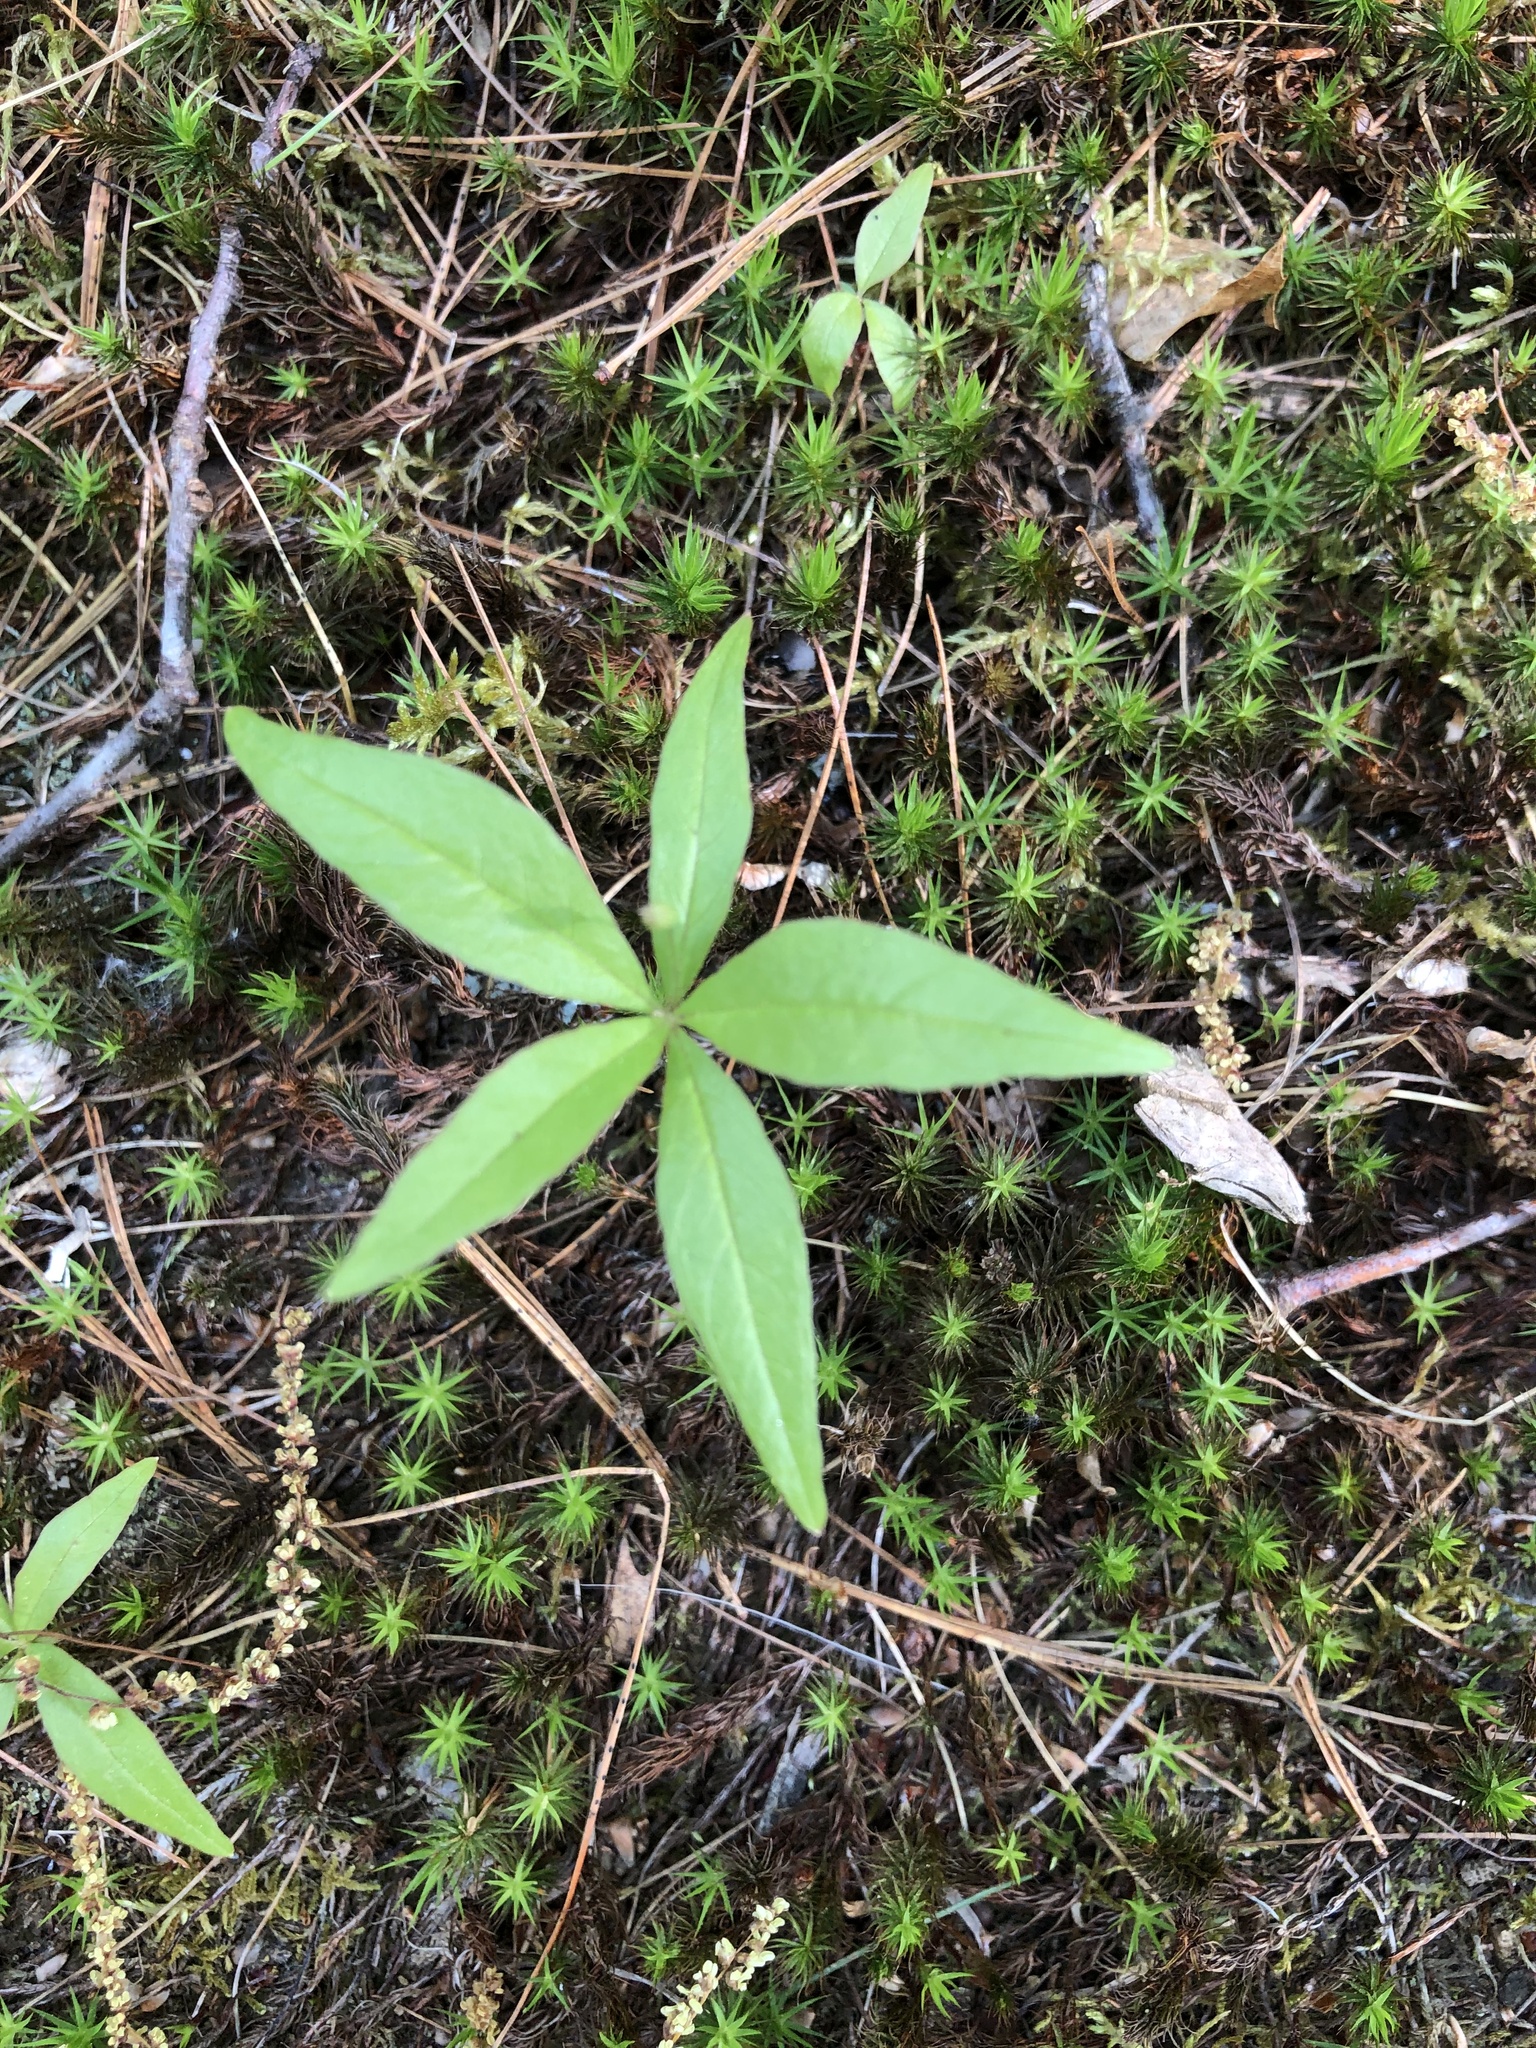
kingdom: Plantae
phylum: Tracheophyta
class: Magnoliopsida
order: Ericales
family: Primulaceae
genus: Lysimachia
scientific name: Lysimachia borealis
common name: American starflower
